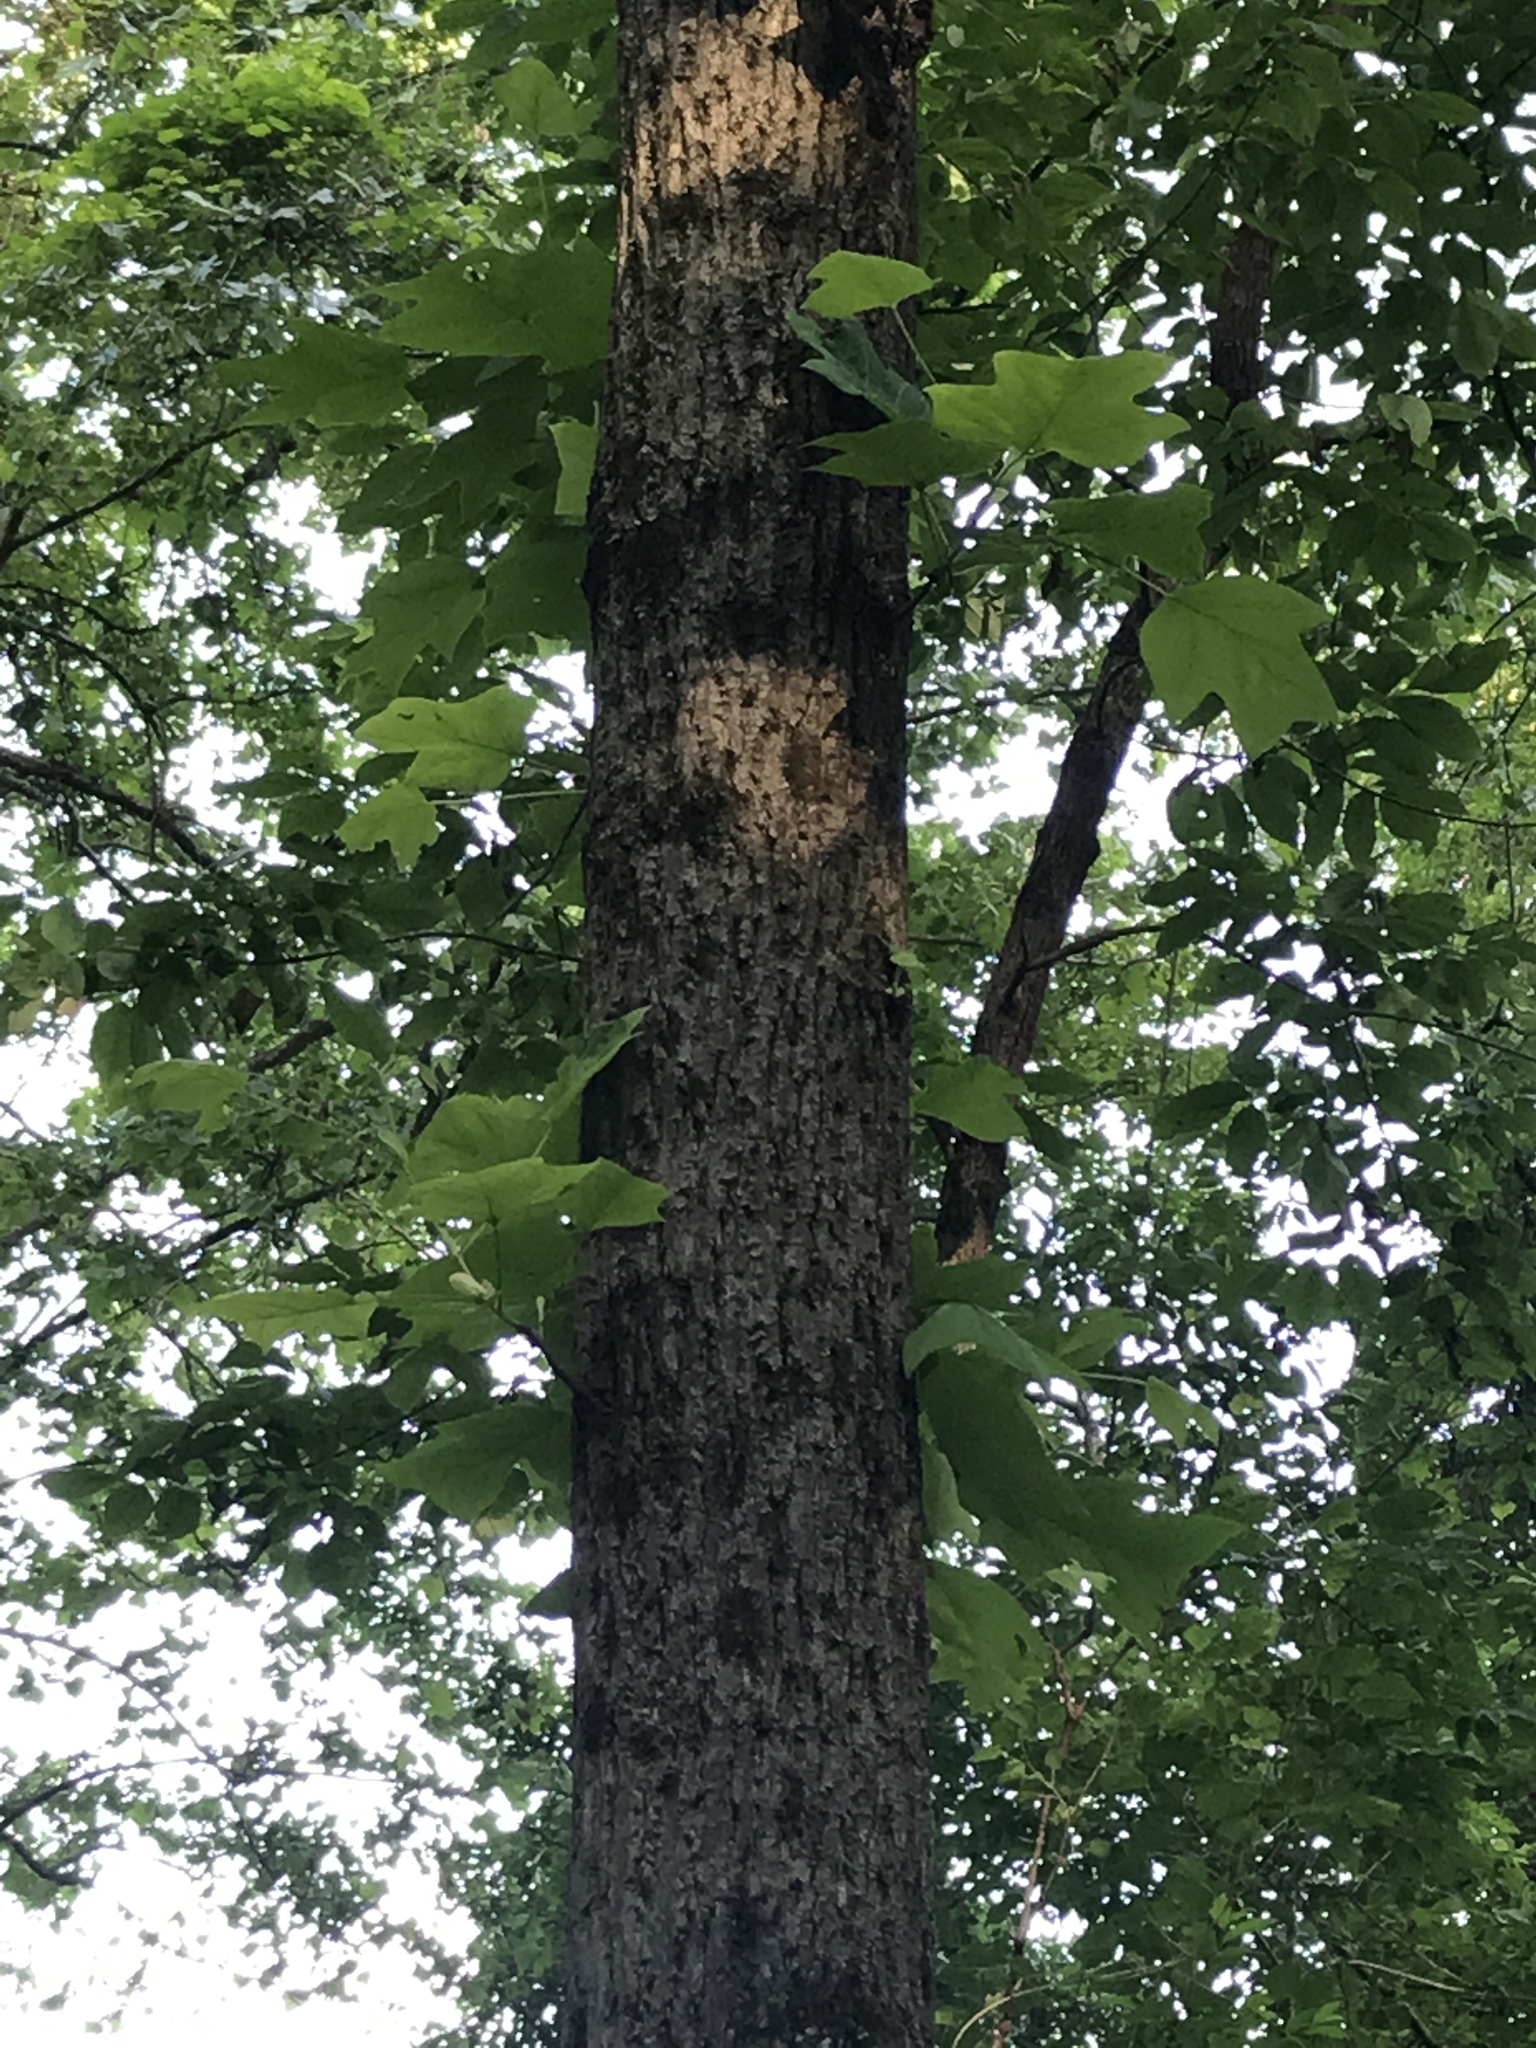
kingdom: Plantae
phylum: Tracheophyta
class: Magnoliopsida
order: Magnoliales
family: Magnoliaceae
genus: Liriodendron
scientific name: Liriodendron tulipifera
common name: Tulip tree
